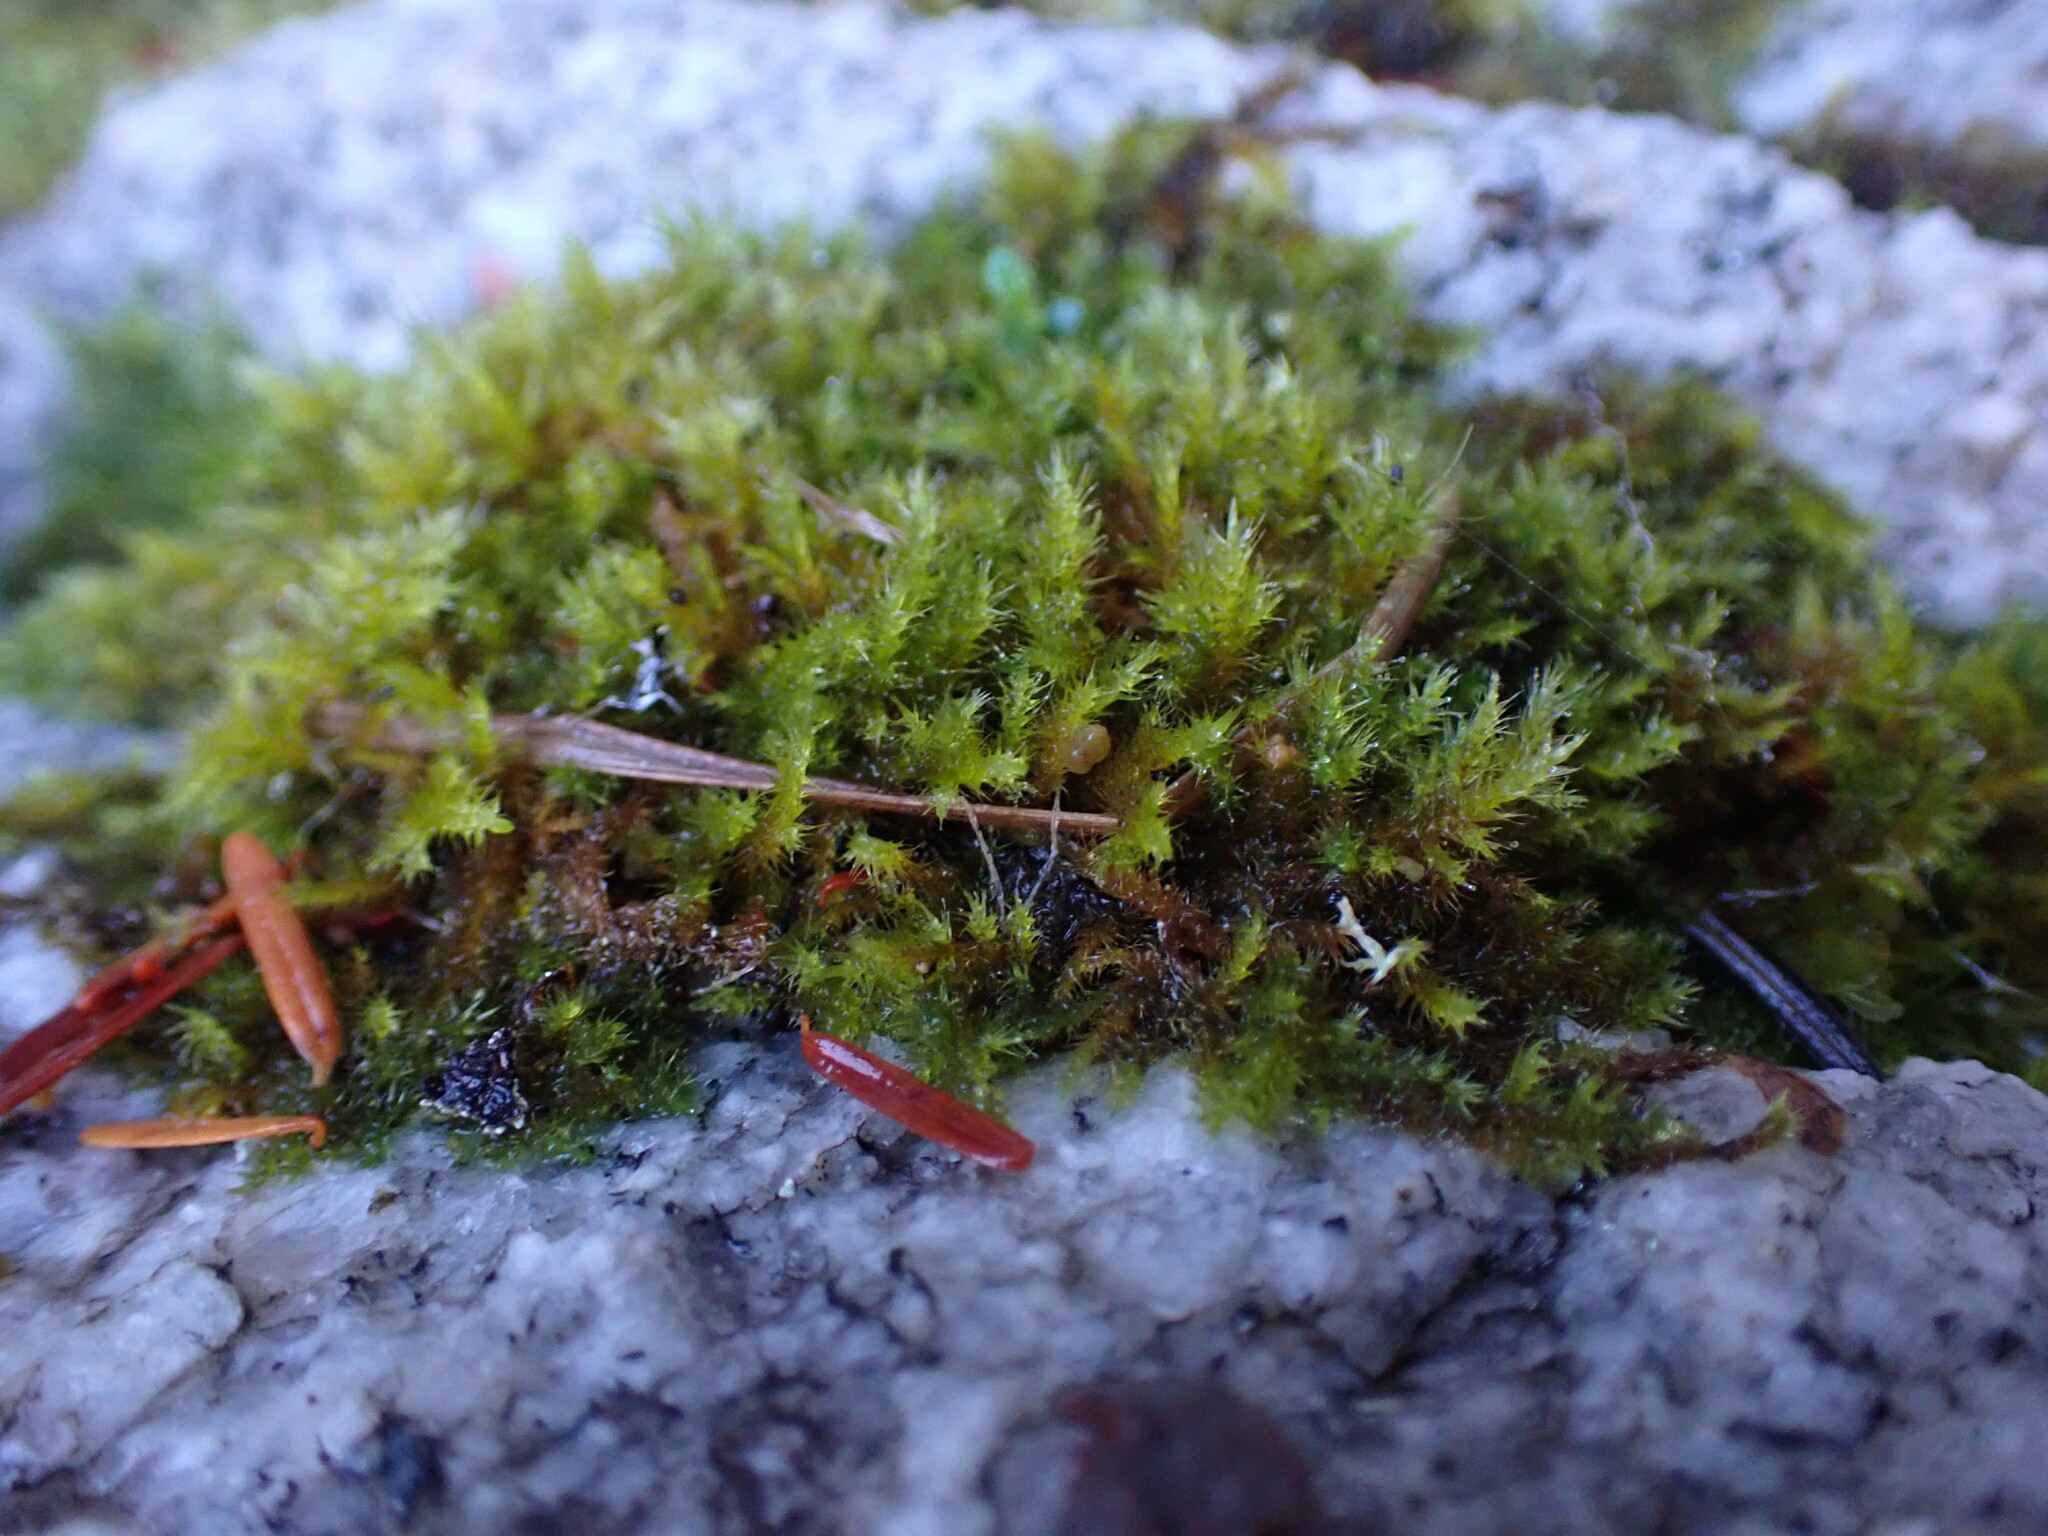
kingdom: Plantae
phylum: Bryophyta
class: Bryopsida
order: Hypnales
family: Pylaisiaceae
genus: Aquilonium
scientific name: Aquilonium adscendens
